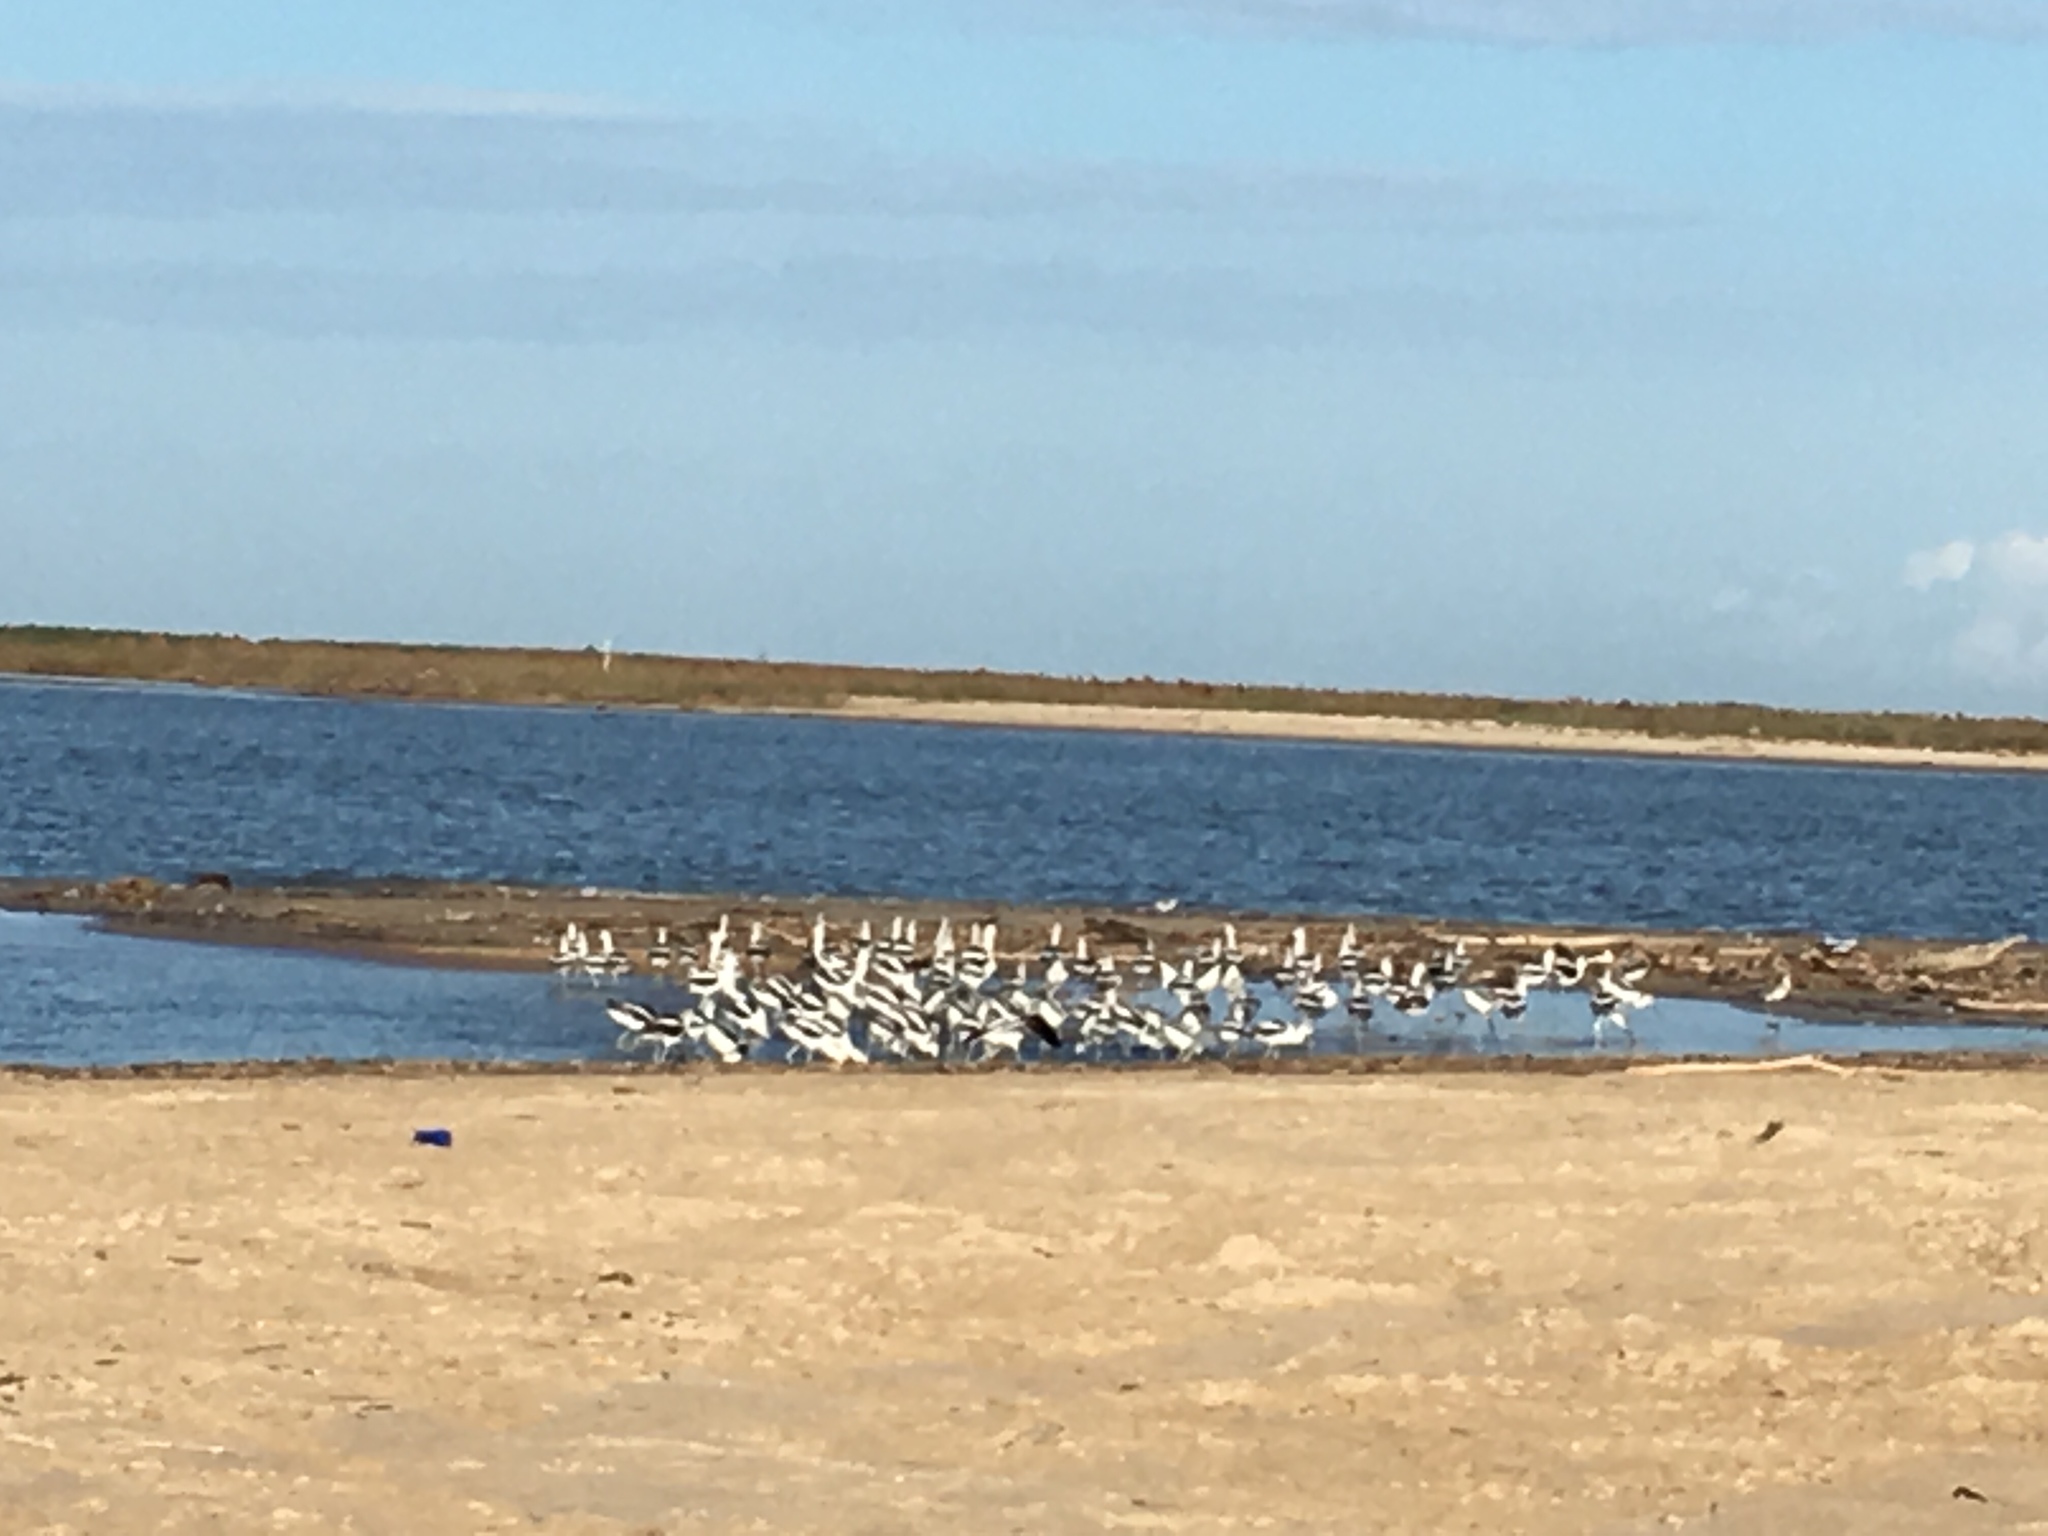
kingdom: Animalia
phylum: Chordata
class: Aves
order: Charadriiformes
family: Recurvirostridae
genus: Recurvirostra
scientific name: Recurvirostra americana
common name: American avocet
